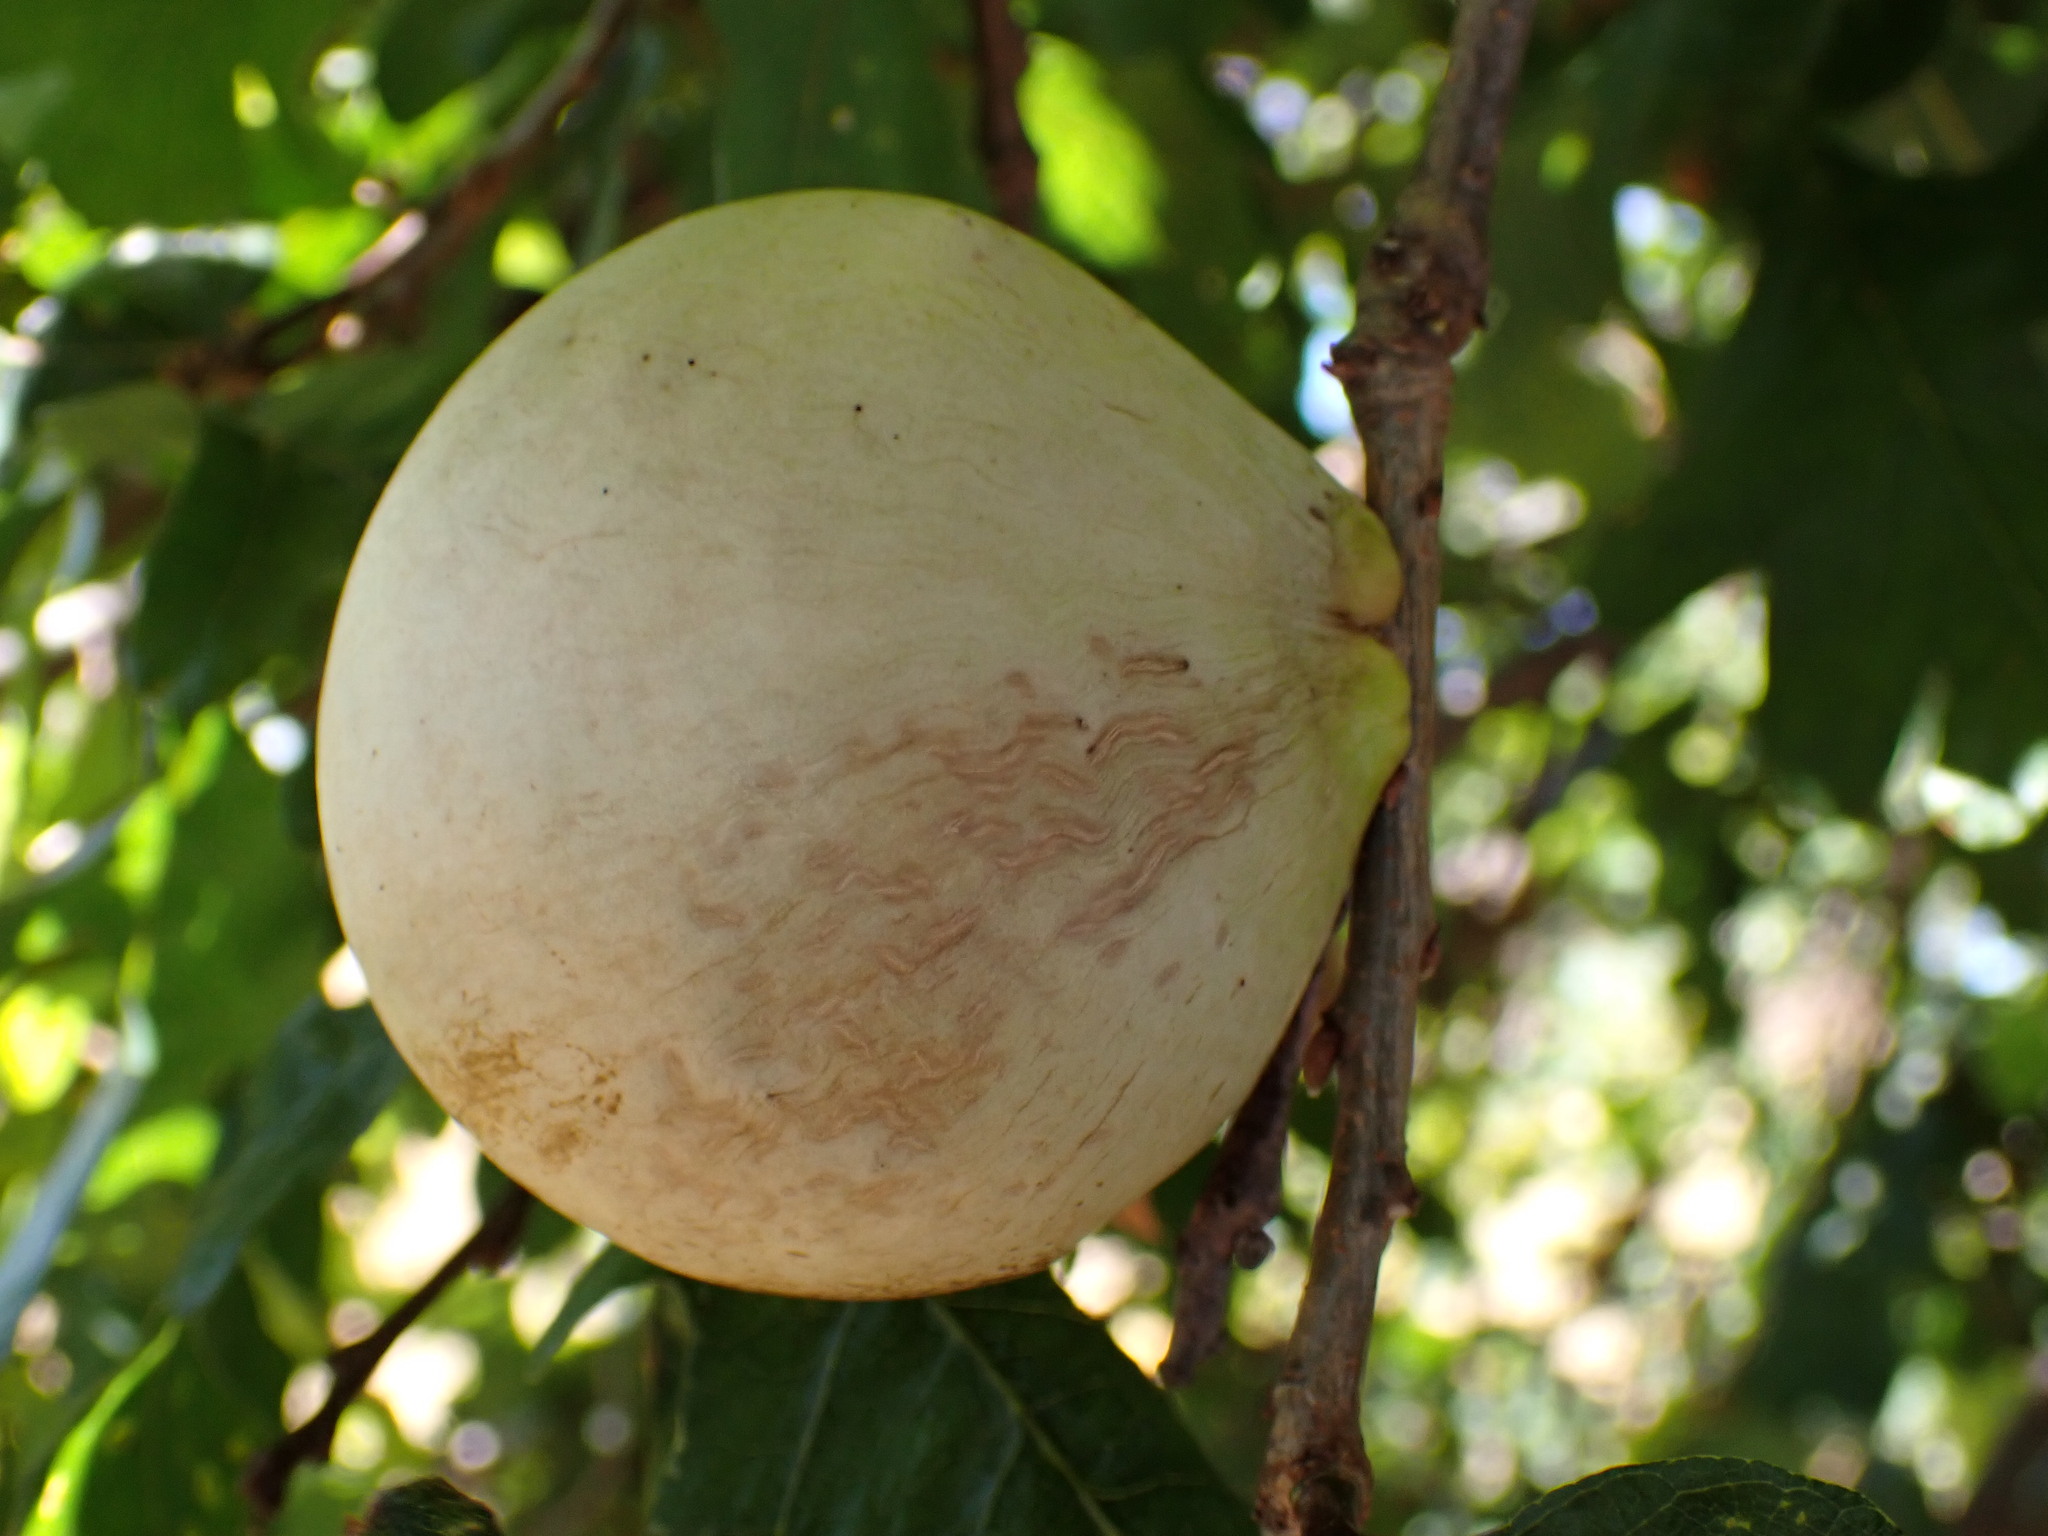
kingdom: Animalia
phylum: Arthropoda
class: Insecta
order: Hymenoptera
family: Cynipidae
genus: Andricus
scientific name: Andricus quercuscalifornicus
